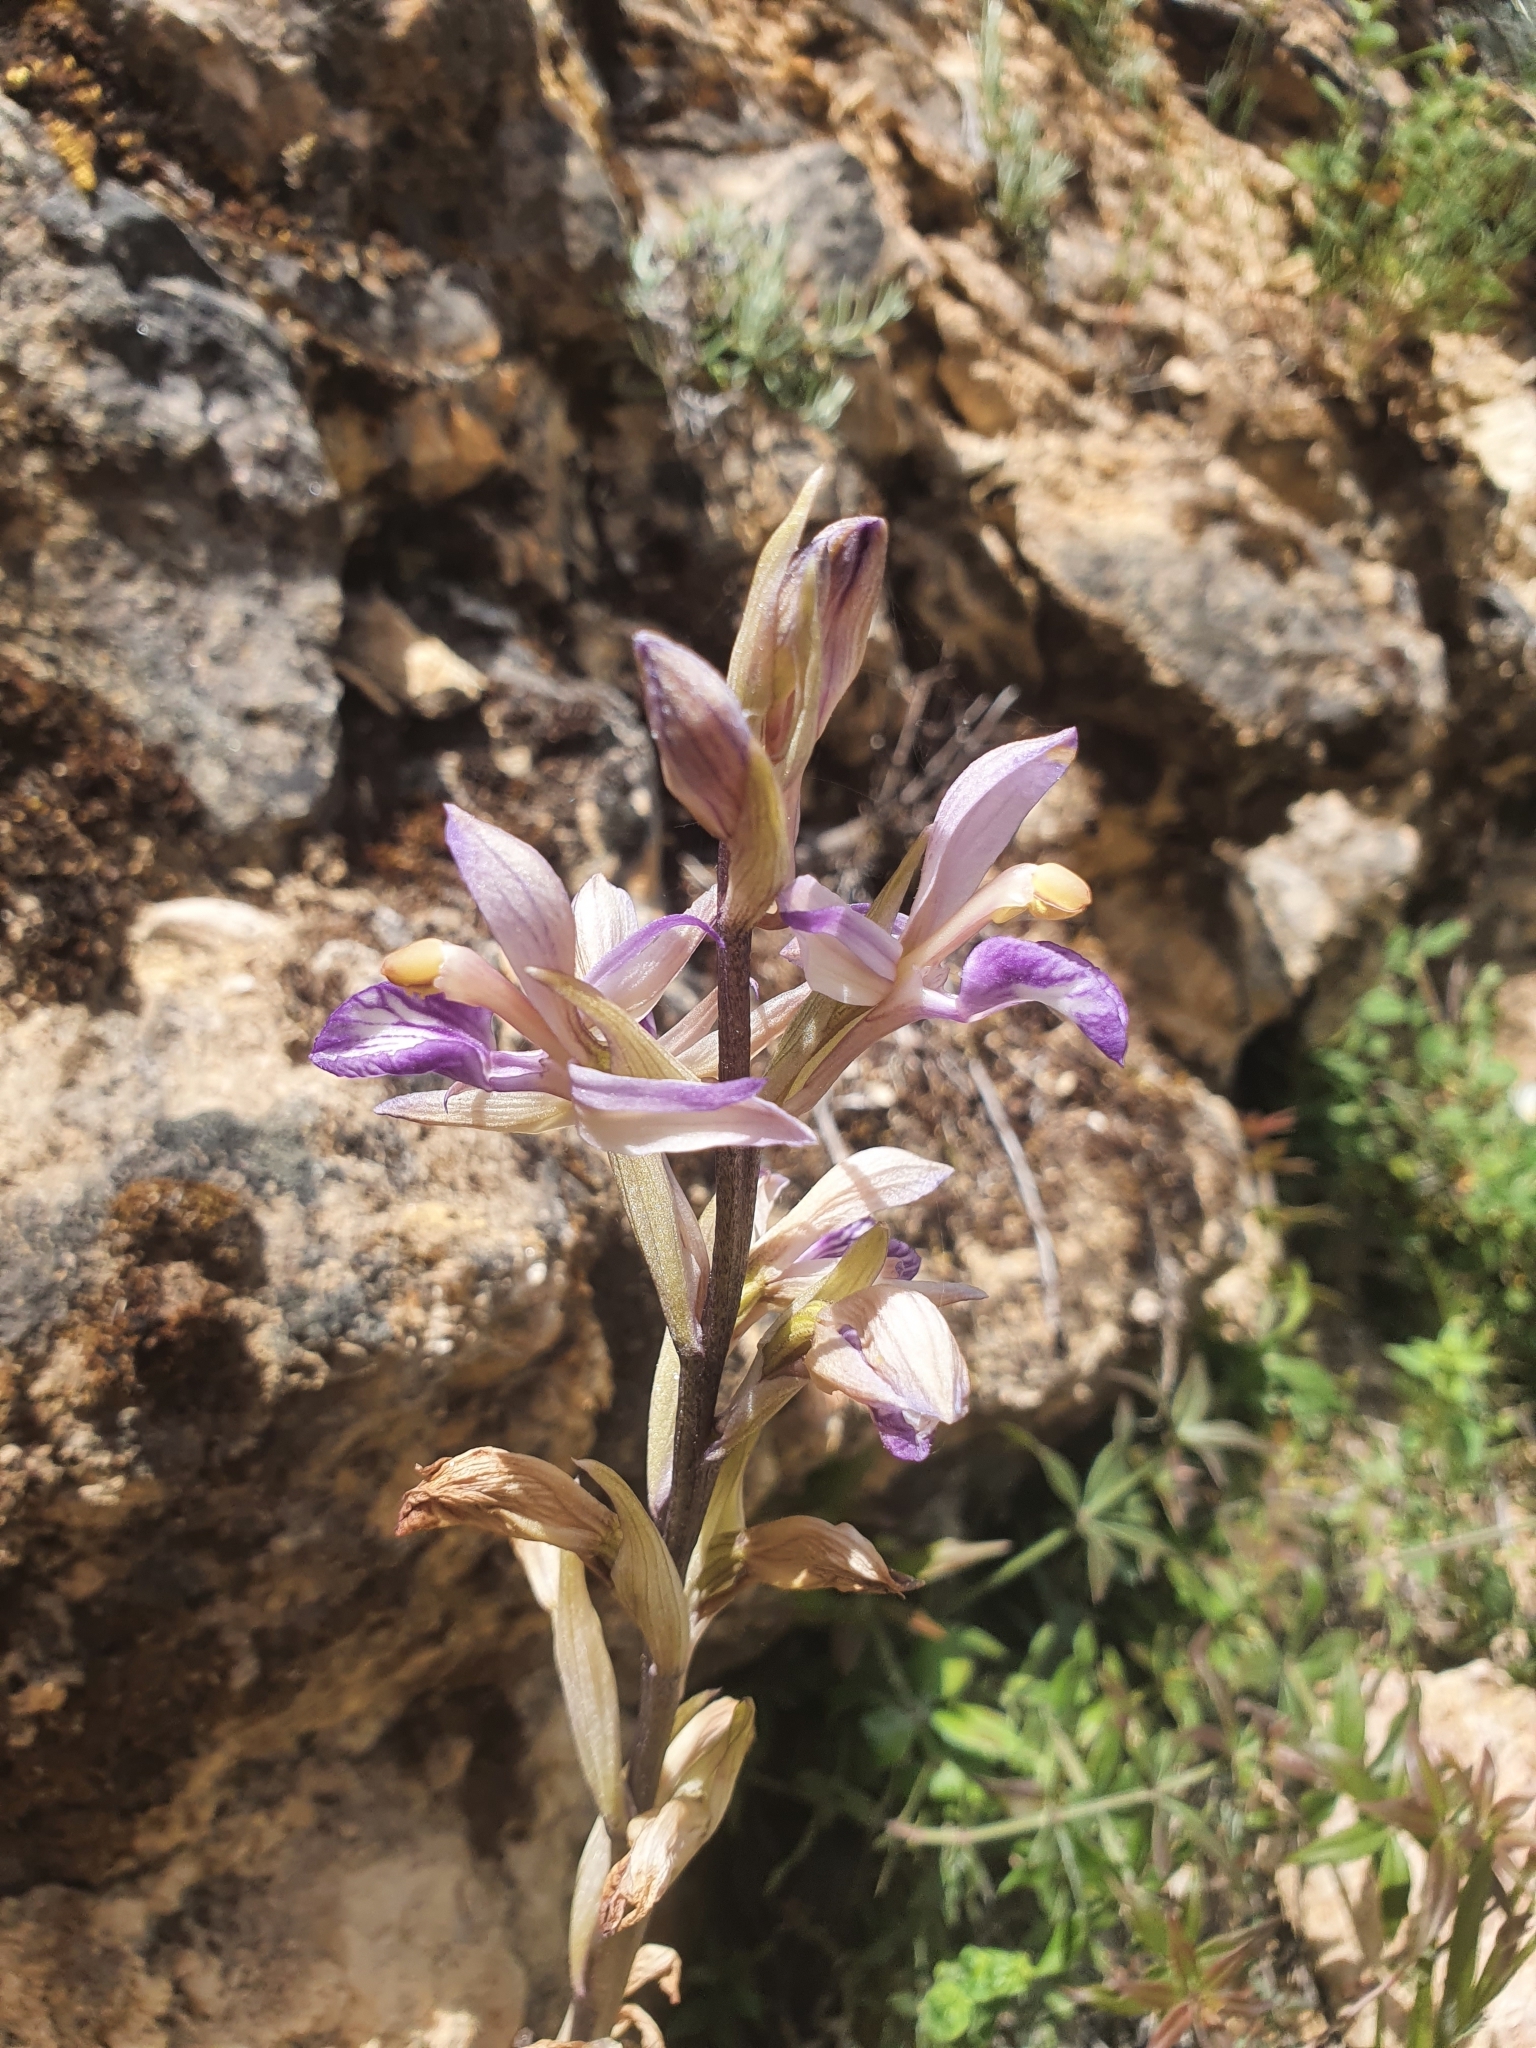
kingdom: Plantae
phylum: Tracheophyta
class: Liliopsida
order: Asparagales
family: Orchidaceae
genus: Limodorum
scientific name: Limodorum abortivum
